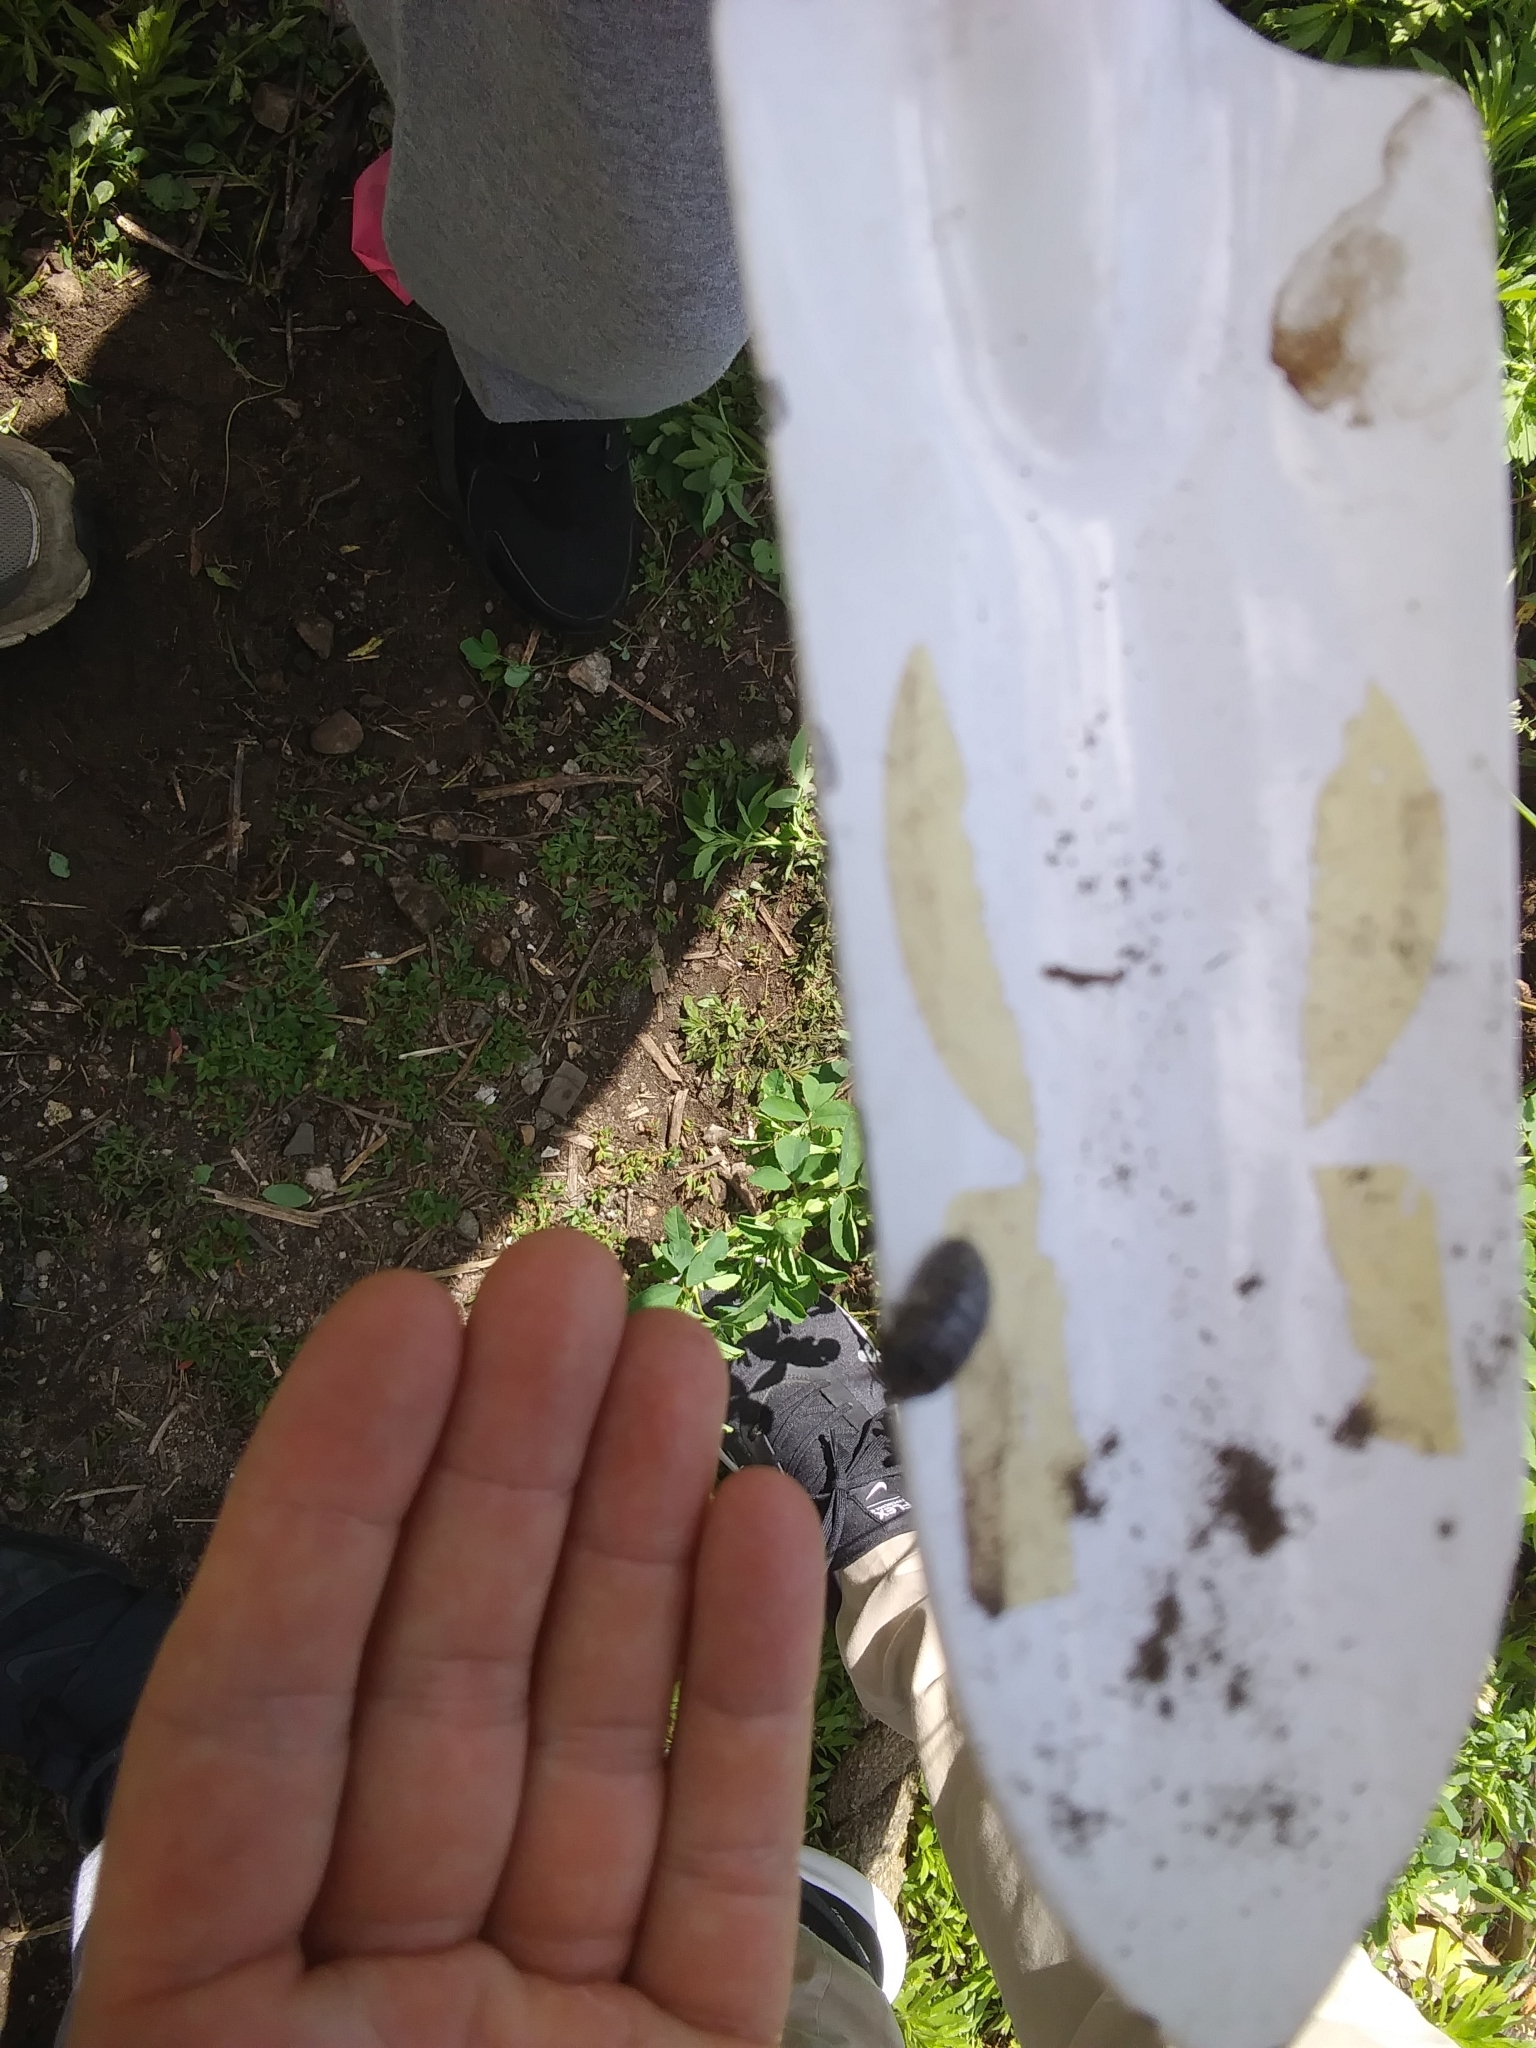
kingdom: Animalia
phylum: Arthropoda
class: Malacostraca
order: Isopoda
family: Armadillidiidae
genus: Armadillidium
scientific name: Armadillidium vulgare
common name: Common pill woodlouse
